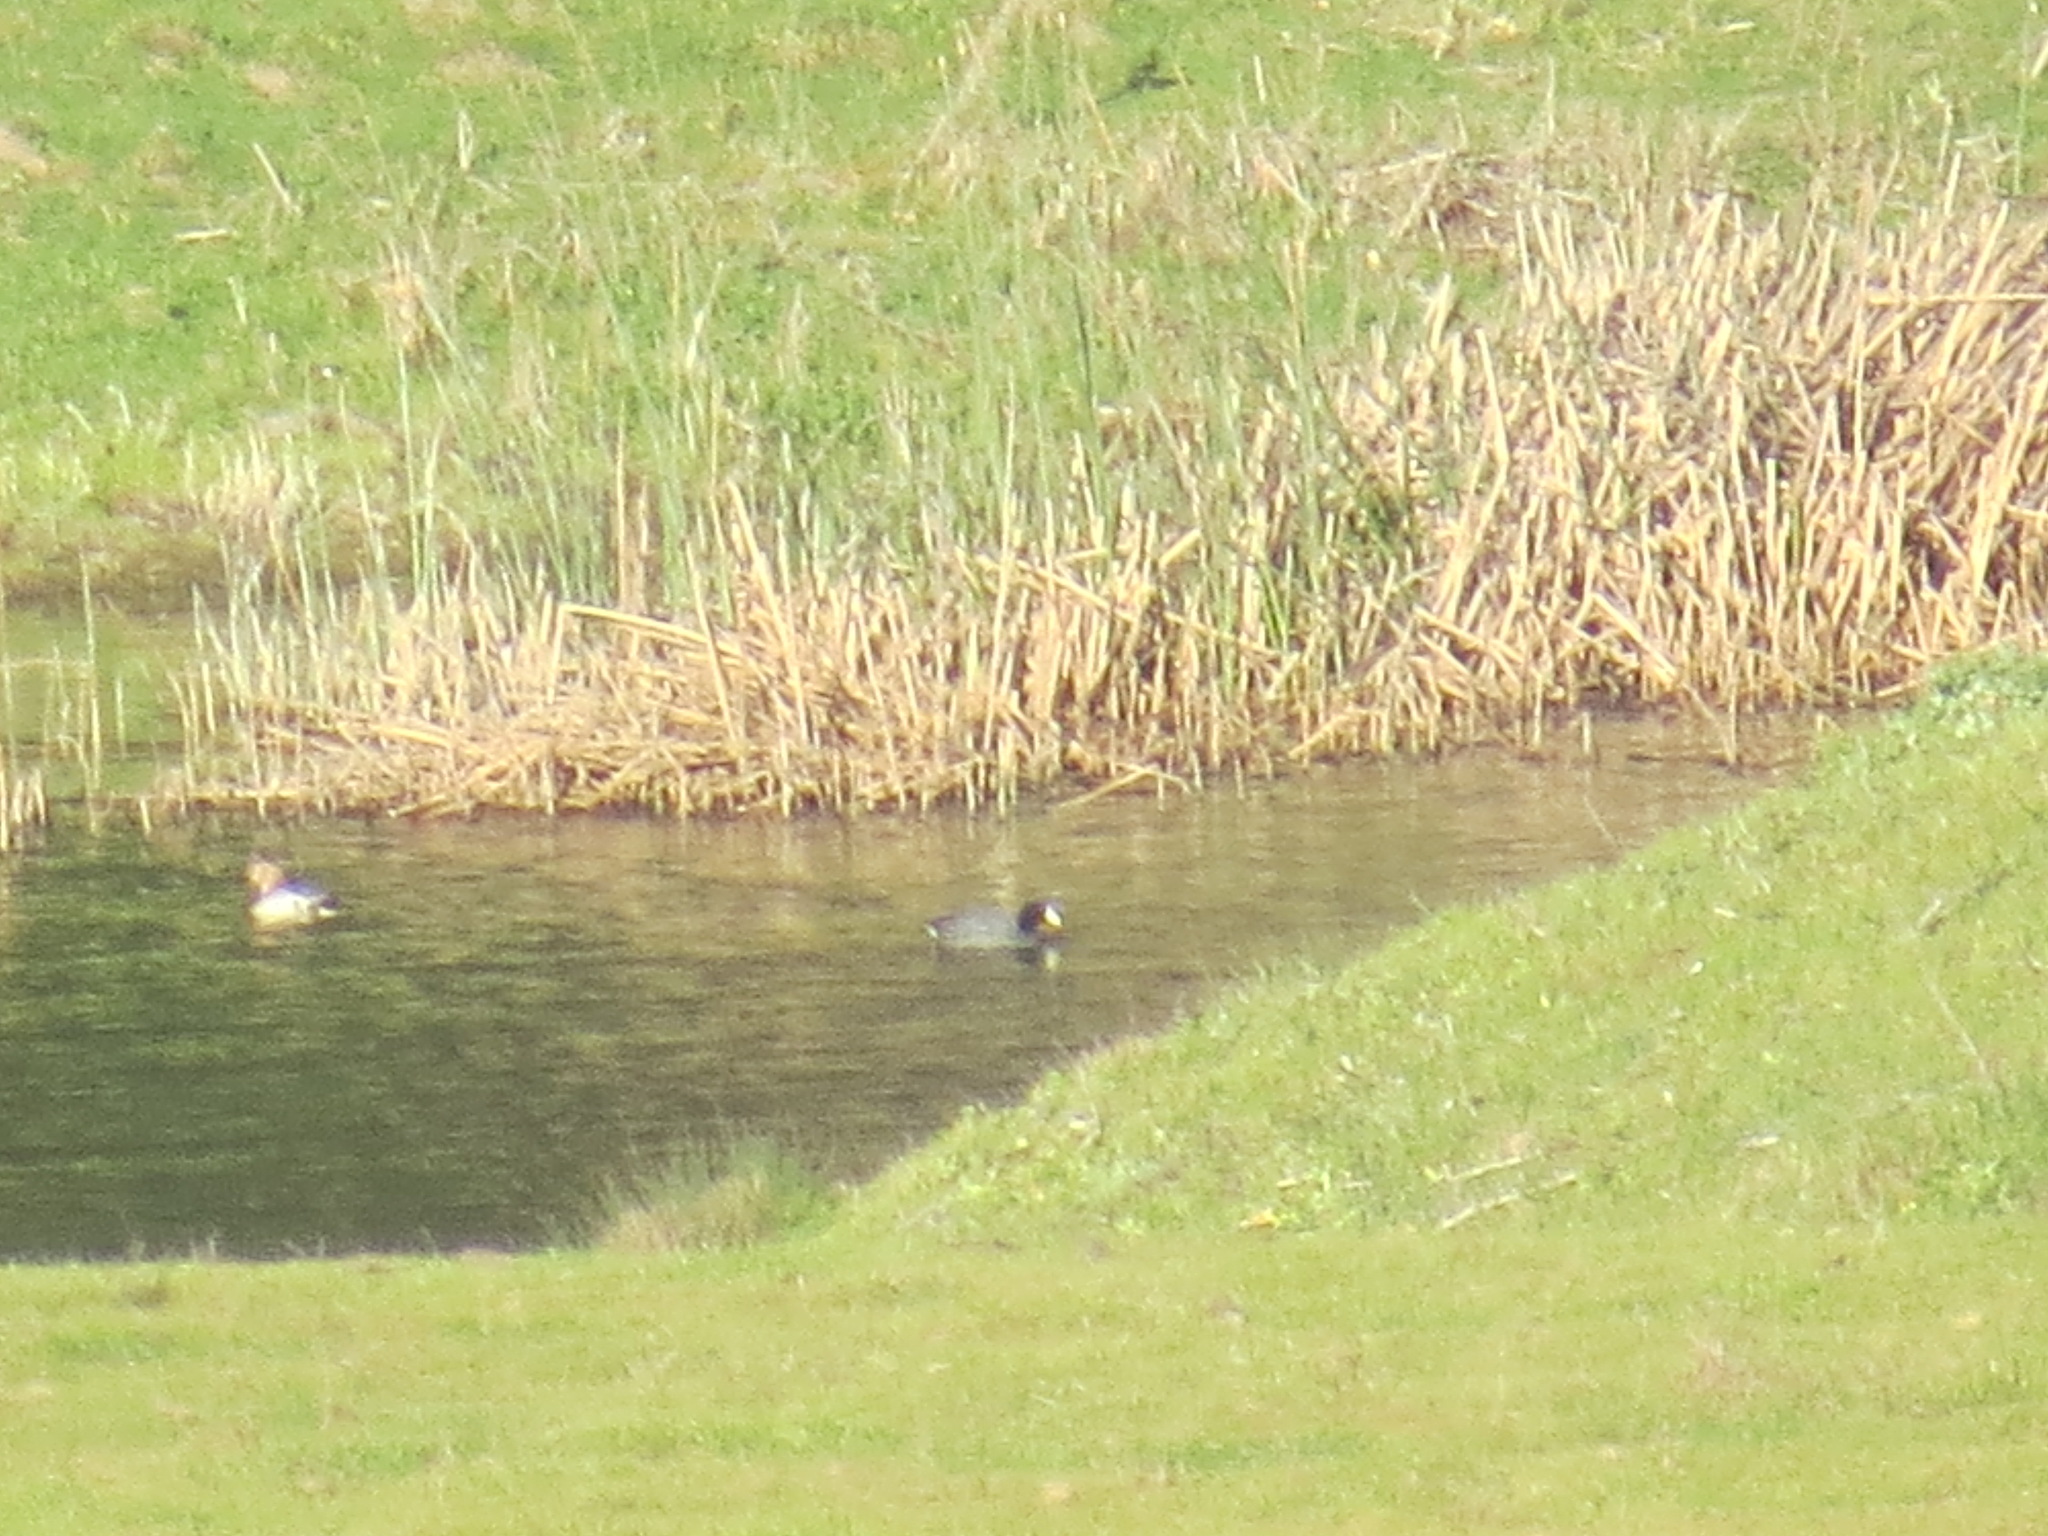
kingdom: Animalia
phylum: Chordata
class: Aves
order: Gruiformes
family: Rallidae
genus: Fulica
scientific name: Fulica americana
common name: American coot
